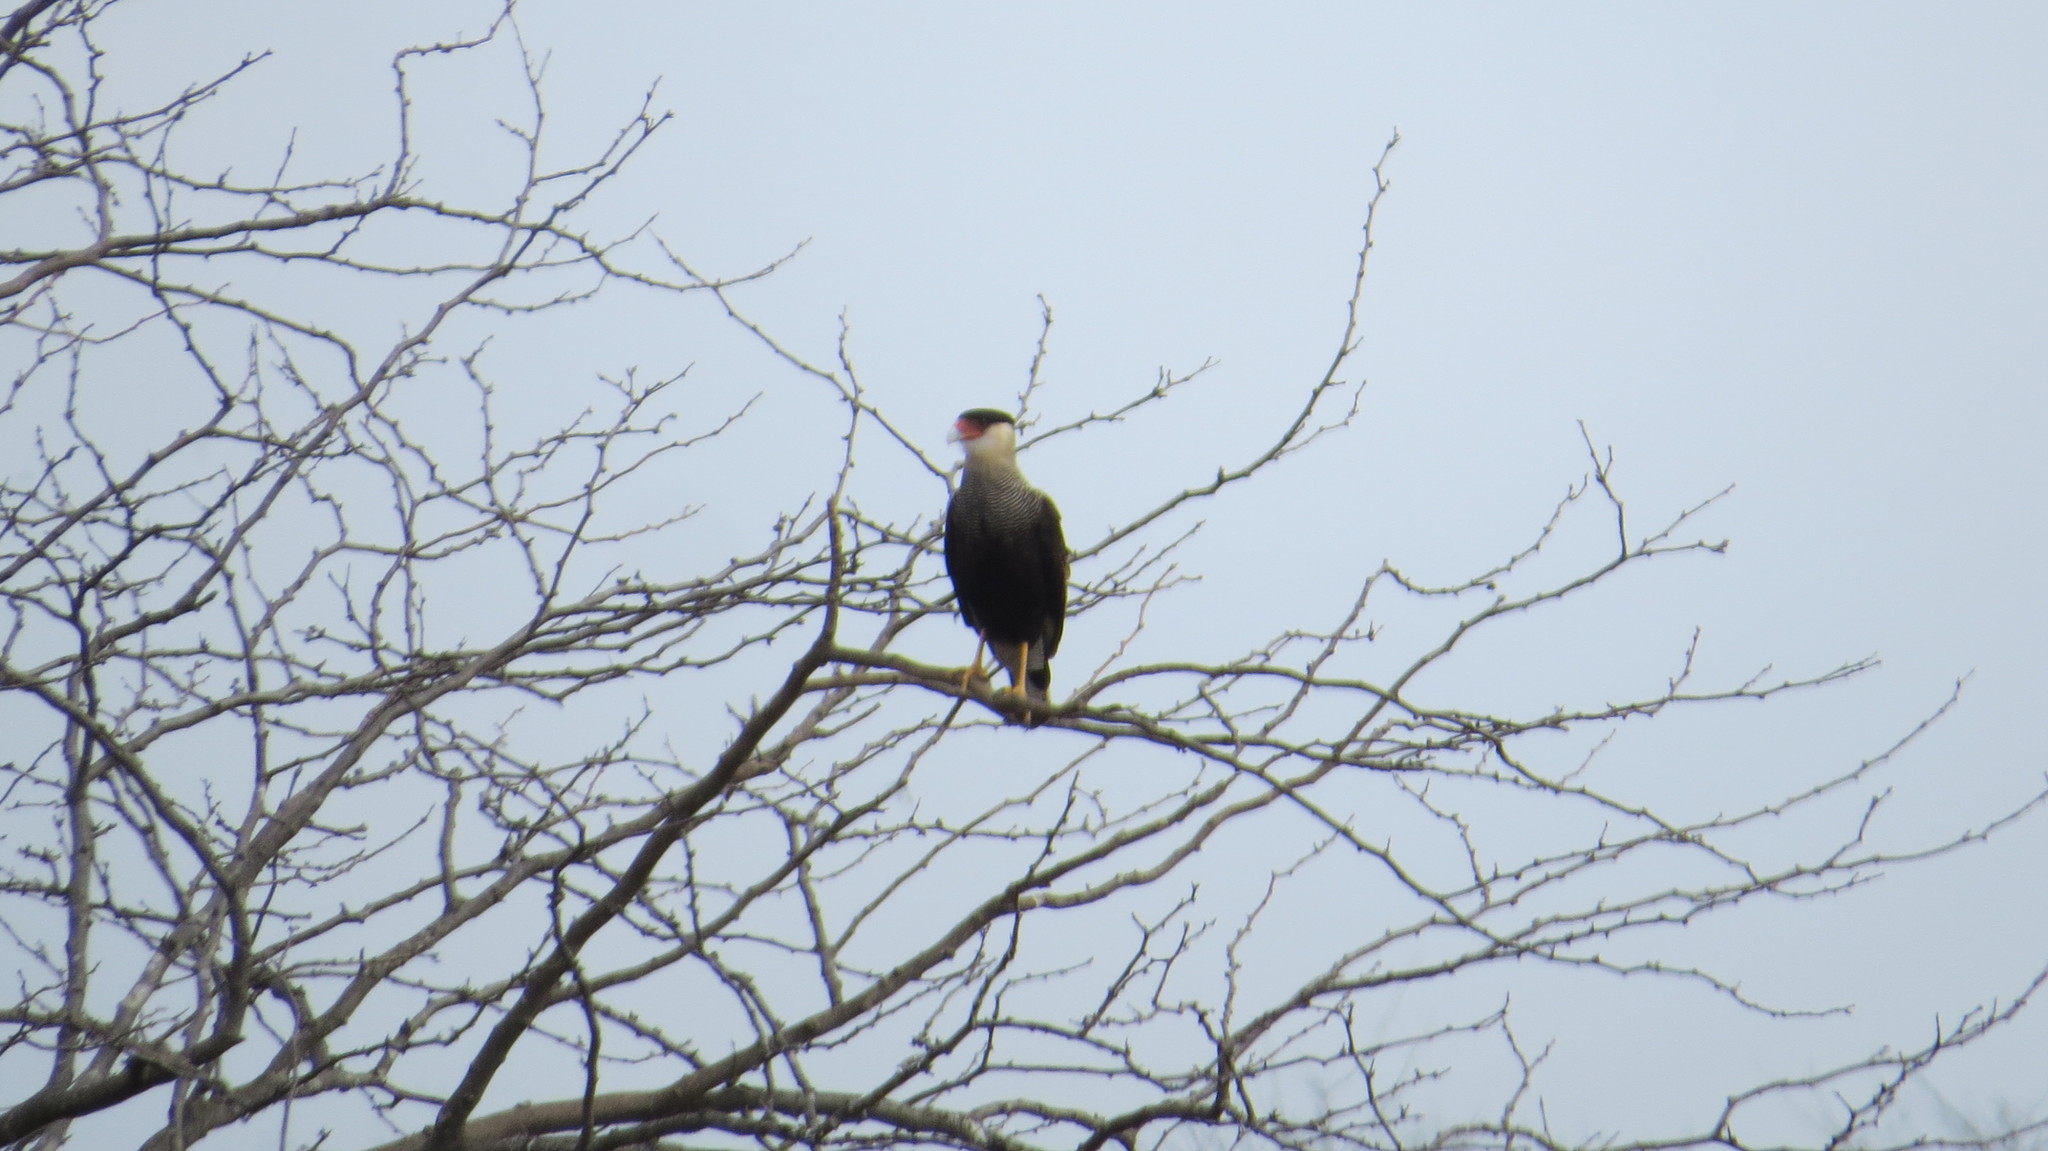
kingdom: Animalia
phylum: Chordata
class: Aves
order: Falconiformes
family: Falconidae
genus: Caracara
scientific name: Caracara plancus
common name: Southern caracara
